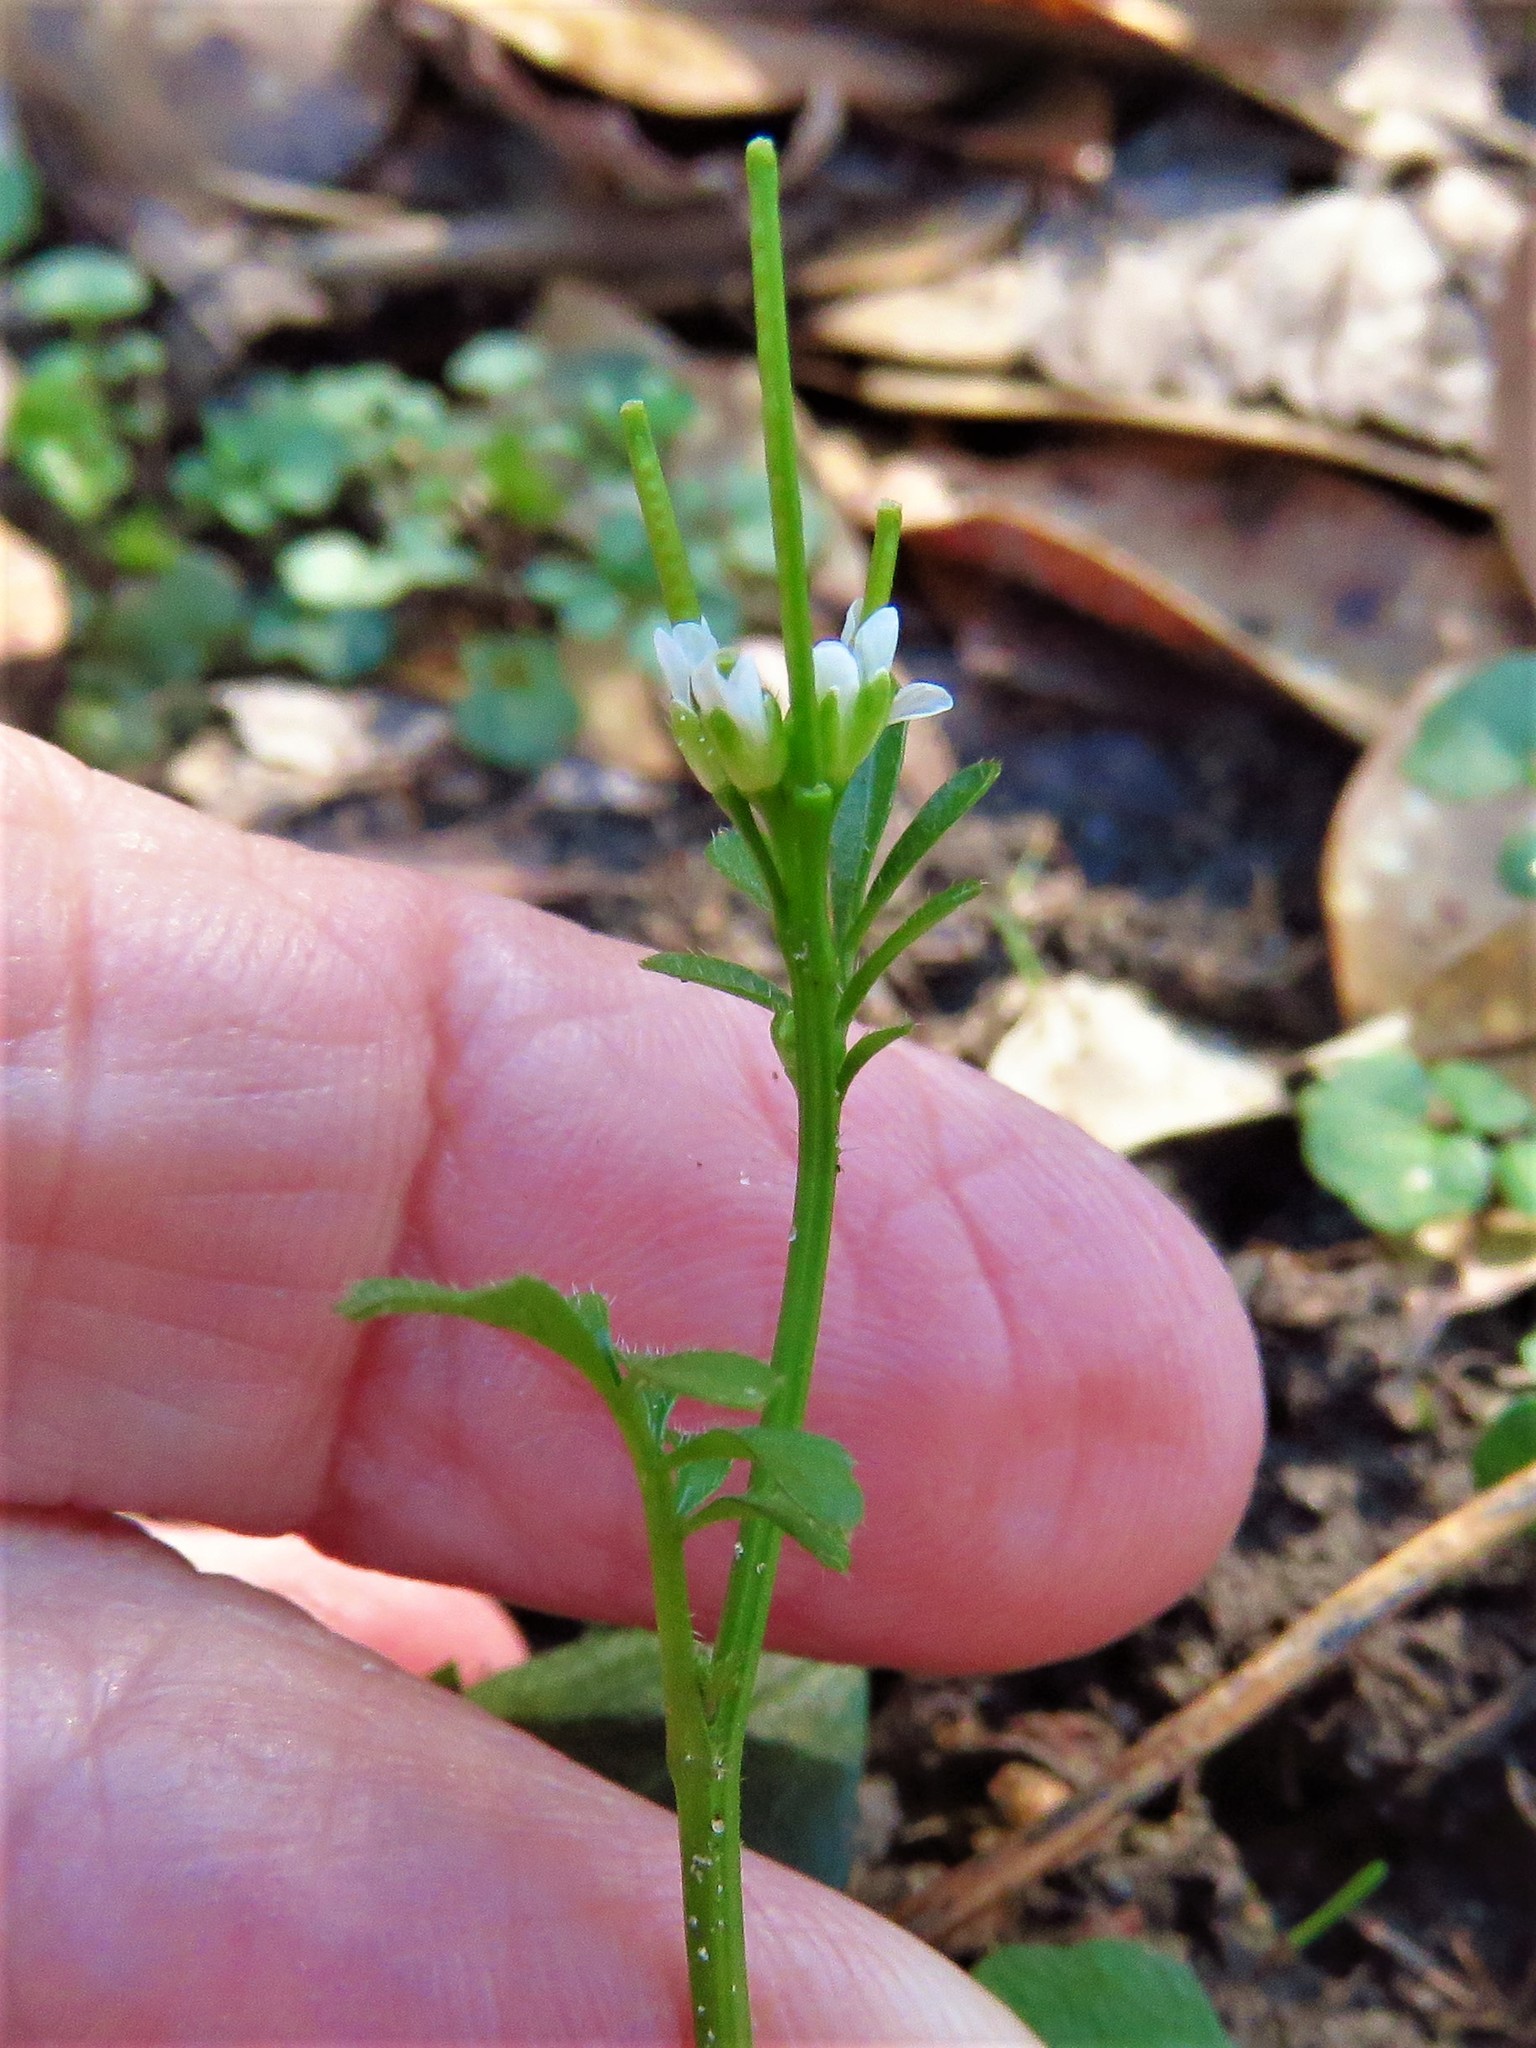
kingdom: Plantae
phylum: Tracheophyta
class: Magnoliopsida
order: Brassicales
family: Brassicaceae
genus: Cardamine
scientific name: Cardamine hirsuta
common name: Hairy bittercress
